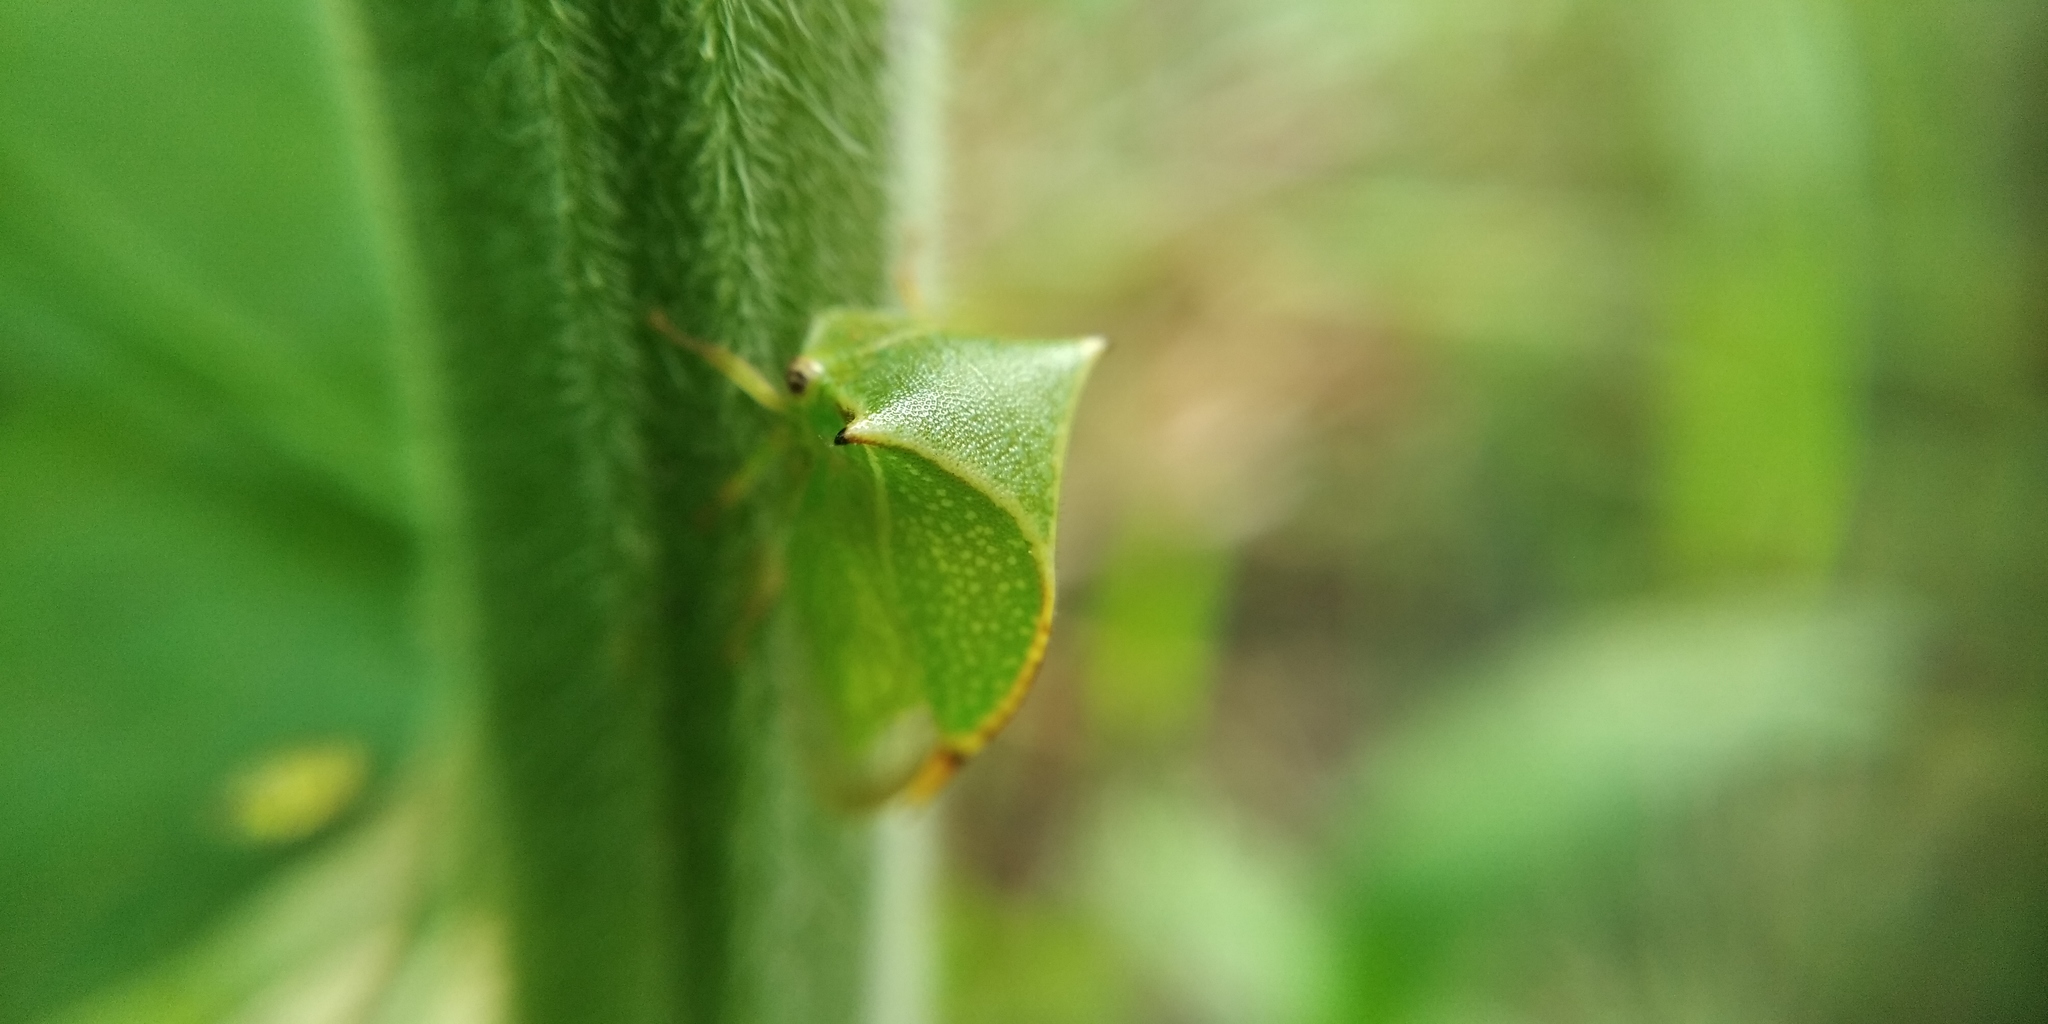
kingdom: Animalia
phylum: Arthropoda
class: Insecta
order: Hemiptera
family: Membracidae
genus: Stictocephala
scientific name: Stictocephala bisonia
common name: American buffalo treehopper
